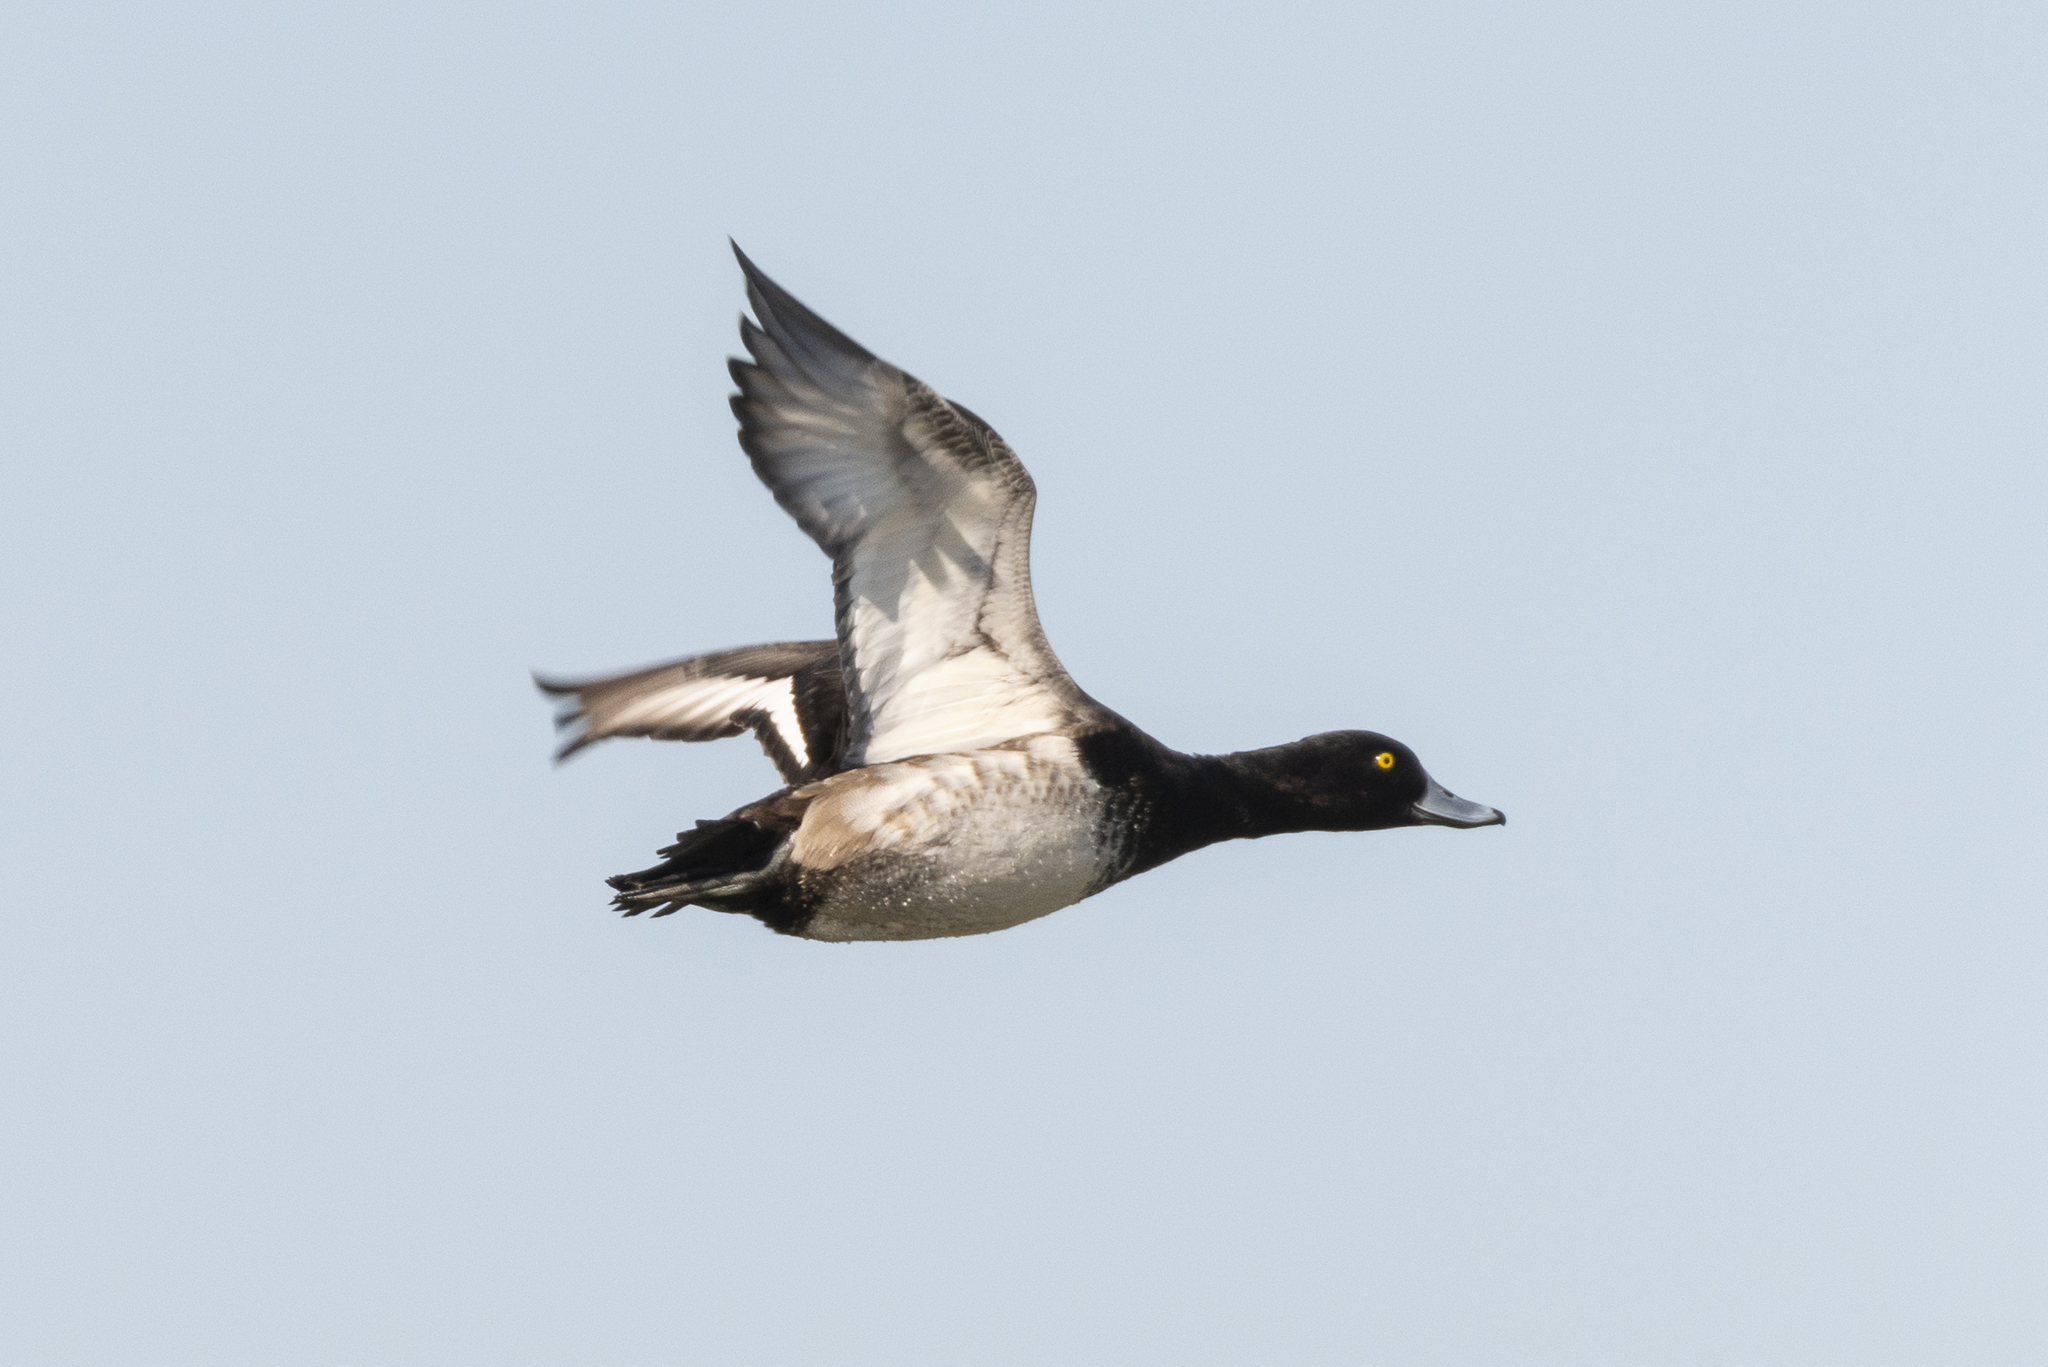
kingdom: Animalia
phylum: Chordata
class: Aves
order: Anseriformes
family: Anatidae
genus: Aythya
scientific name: Aythya fuligula
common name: Tufted duck
